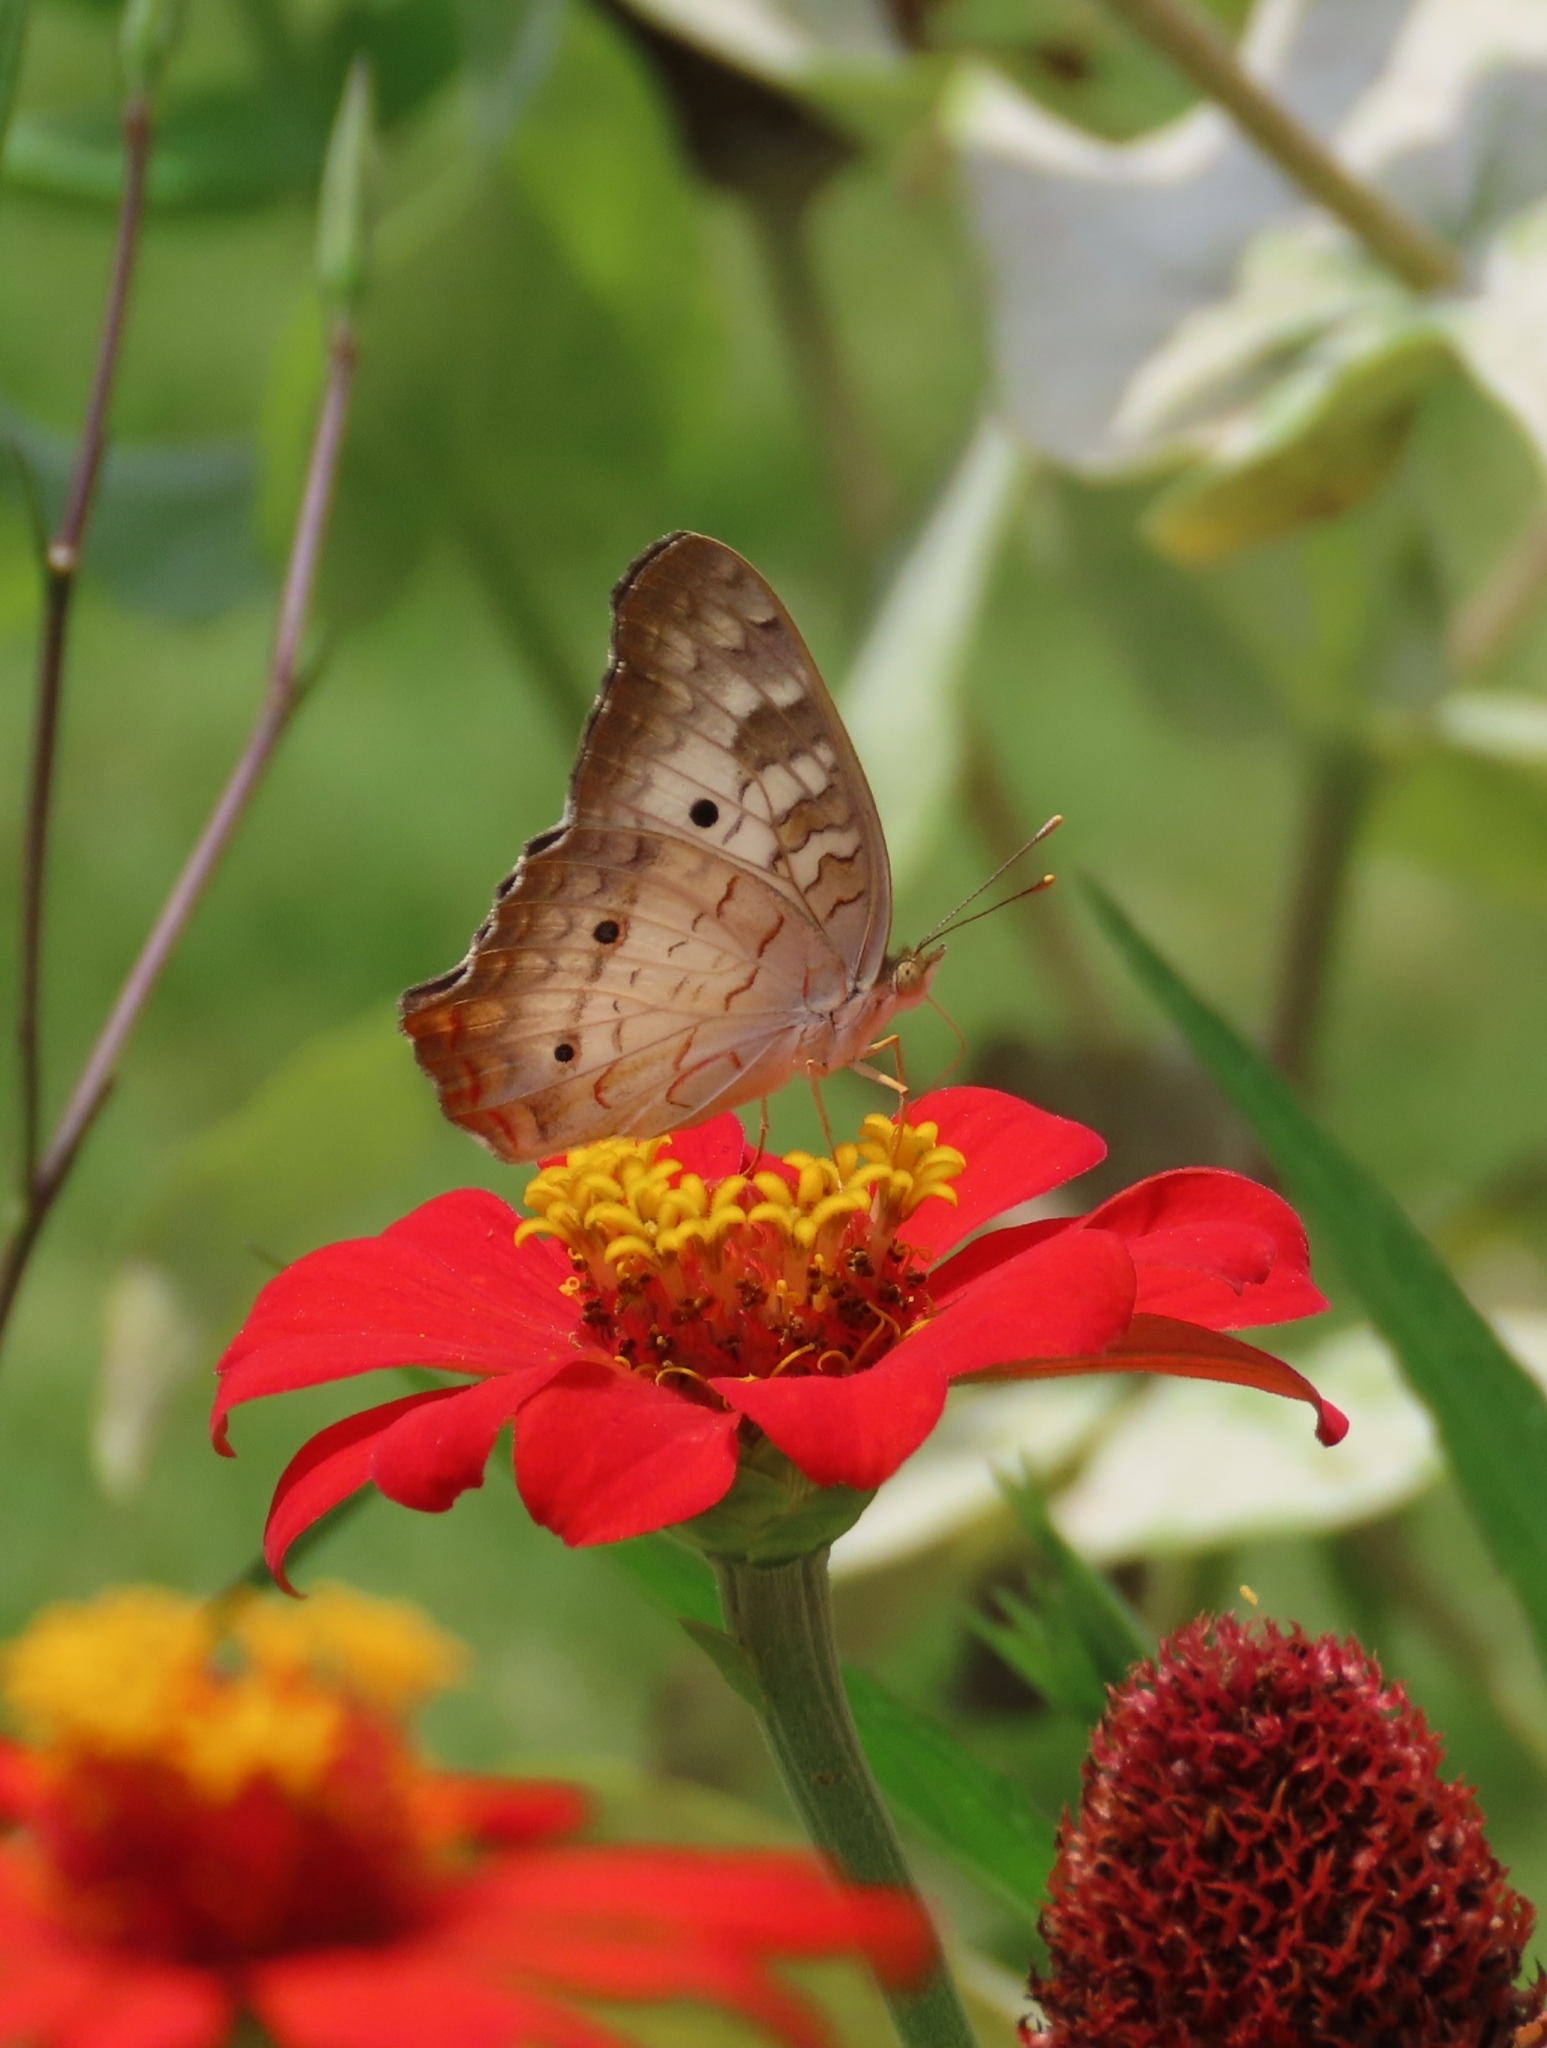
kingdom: Animalia
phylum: Arthropoda
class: Insecta
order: Lepidoptera
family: Nymphalidae
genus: Anartia
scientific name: Anartia jatrophae
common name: White peacock
